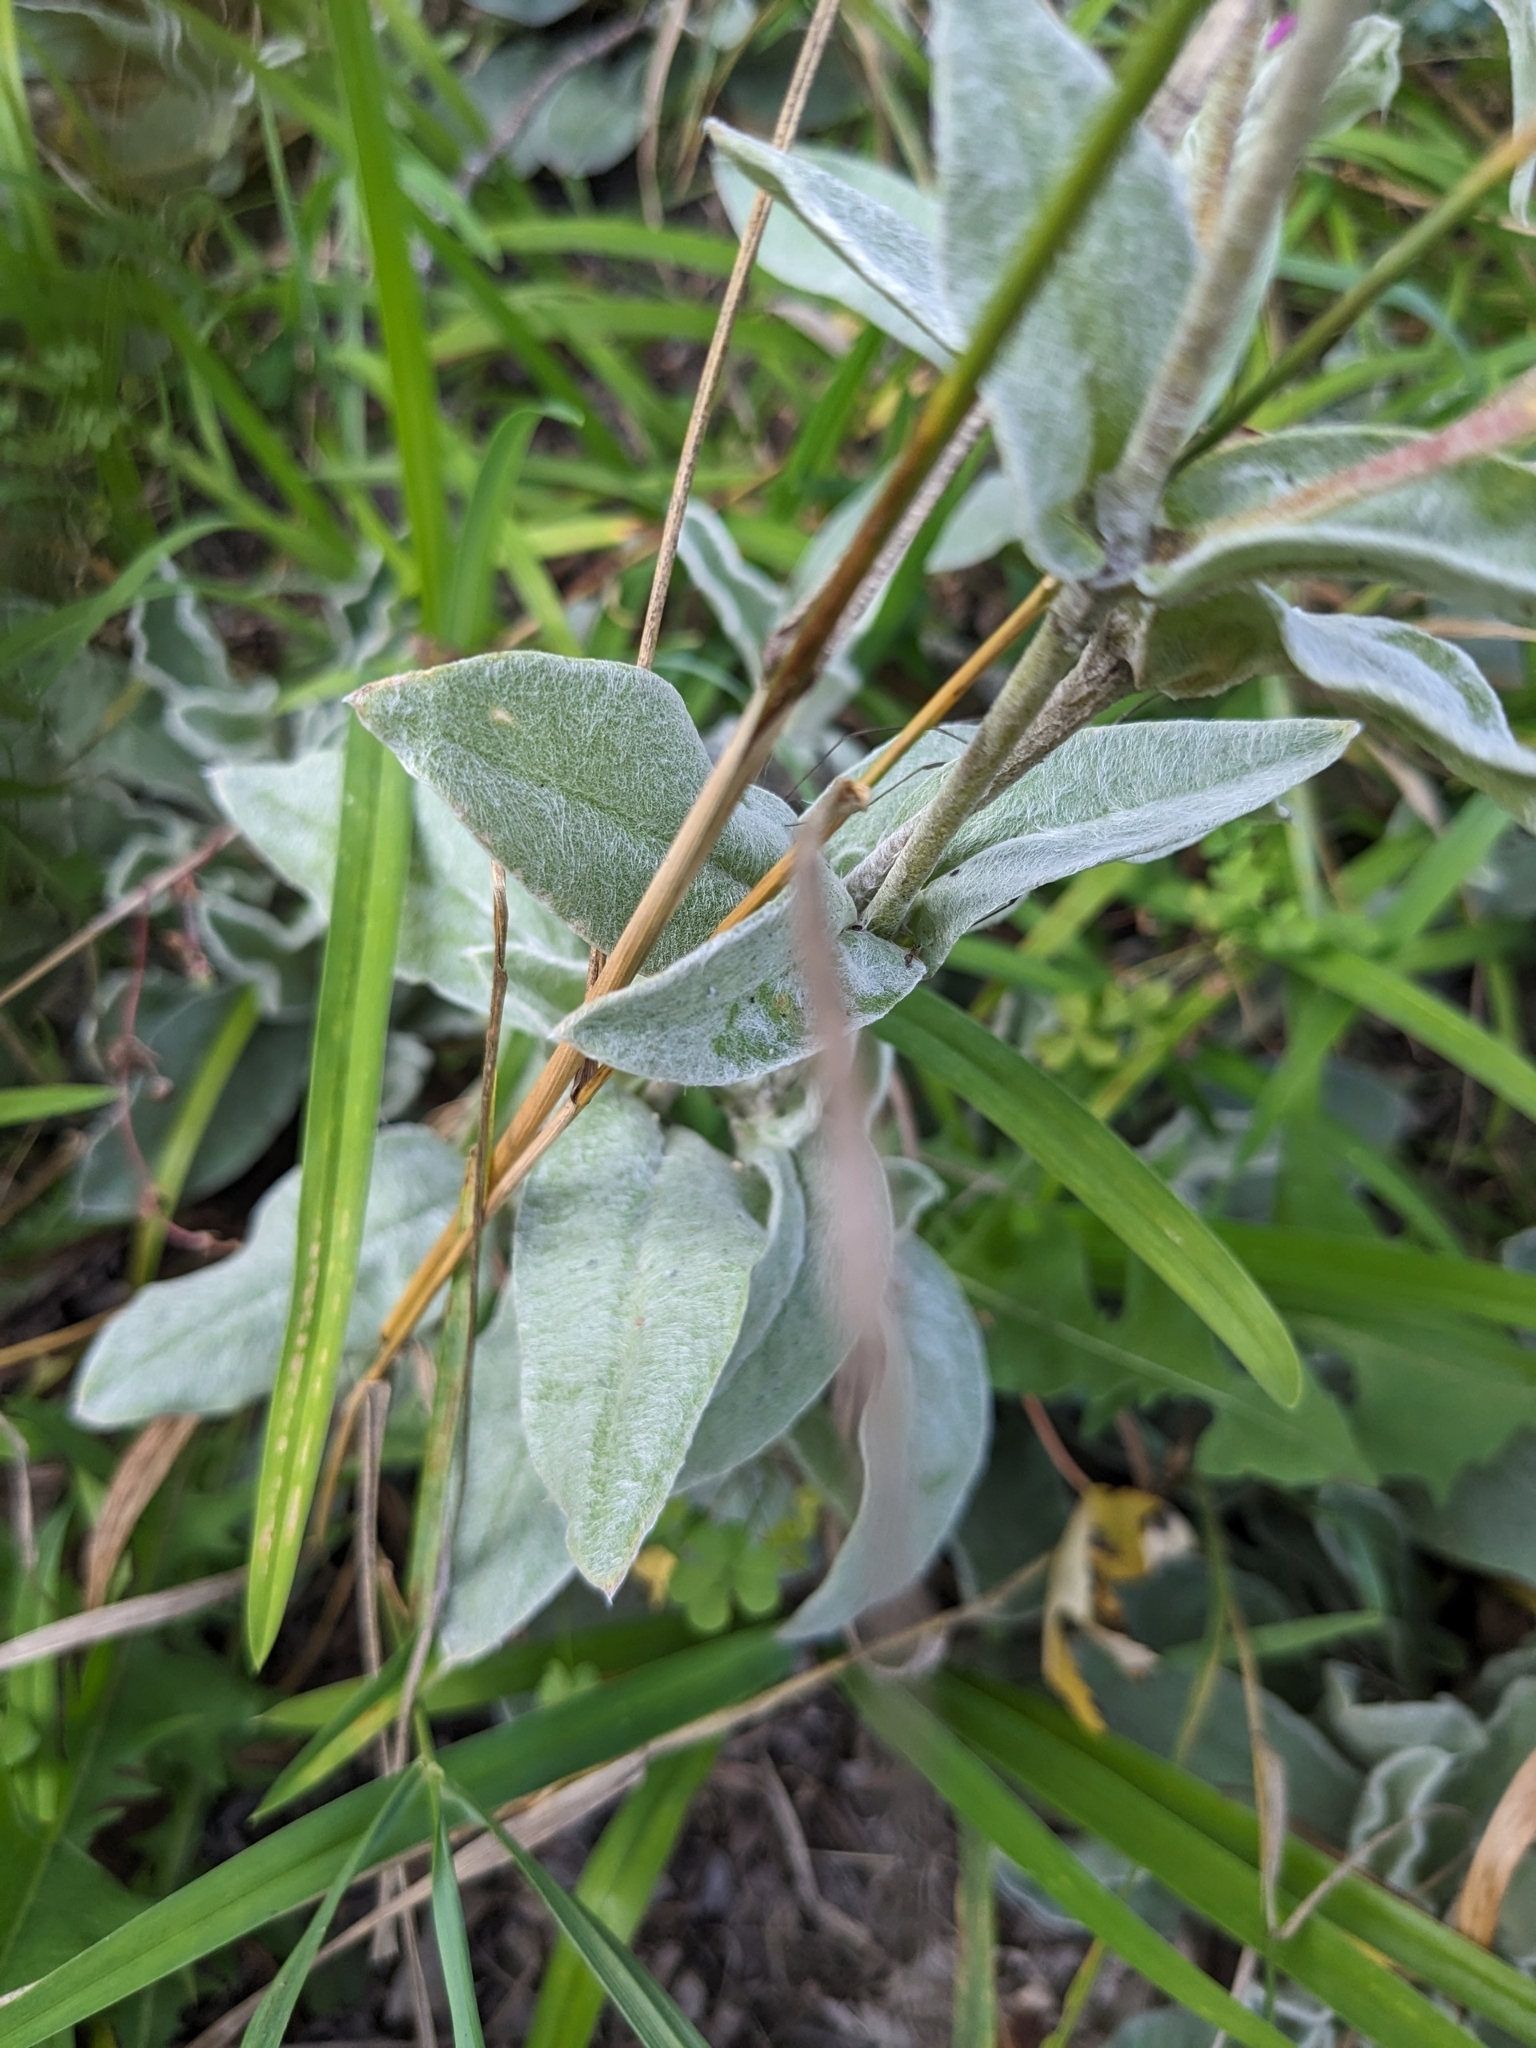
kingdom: Plantae
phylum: Tracheophyta
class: Magnoliopsida
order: Caryophyllales
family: Caryophyllaceae
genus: Silene
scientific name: Silene coronaria
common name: Rose campion
